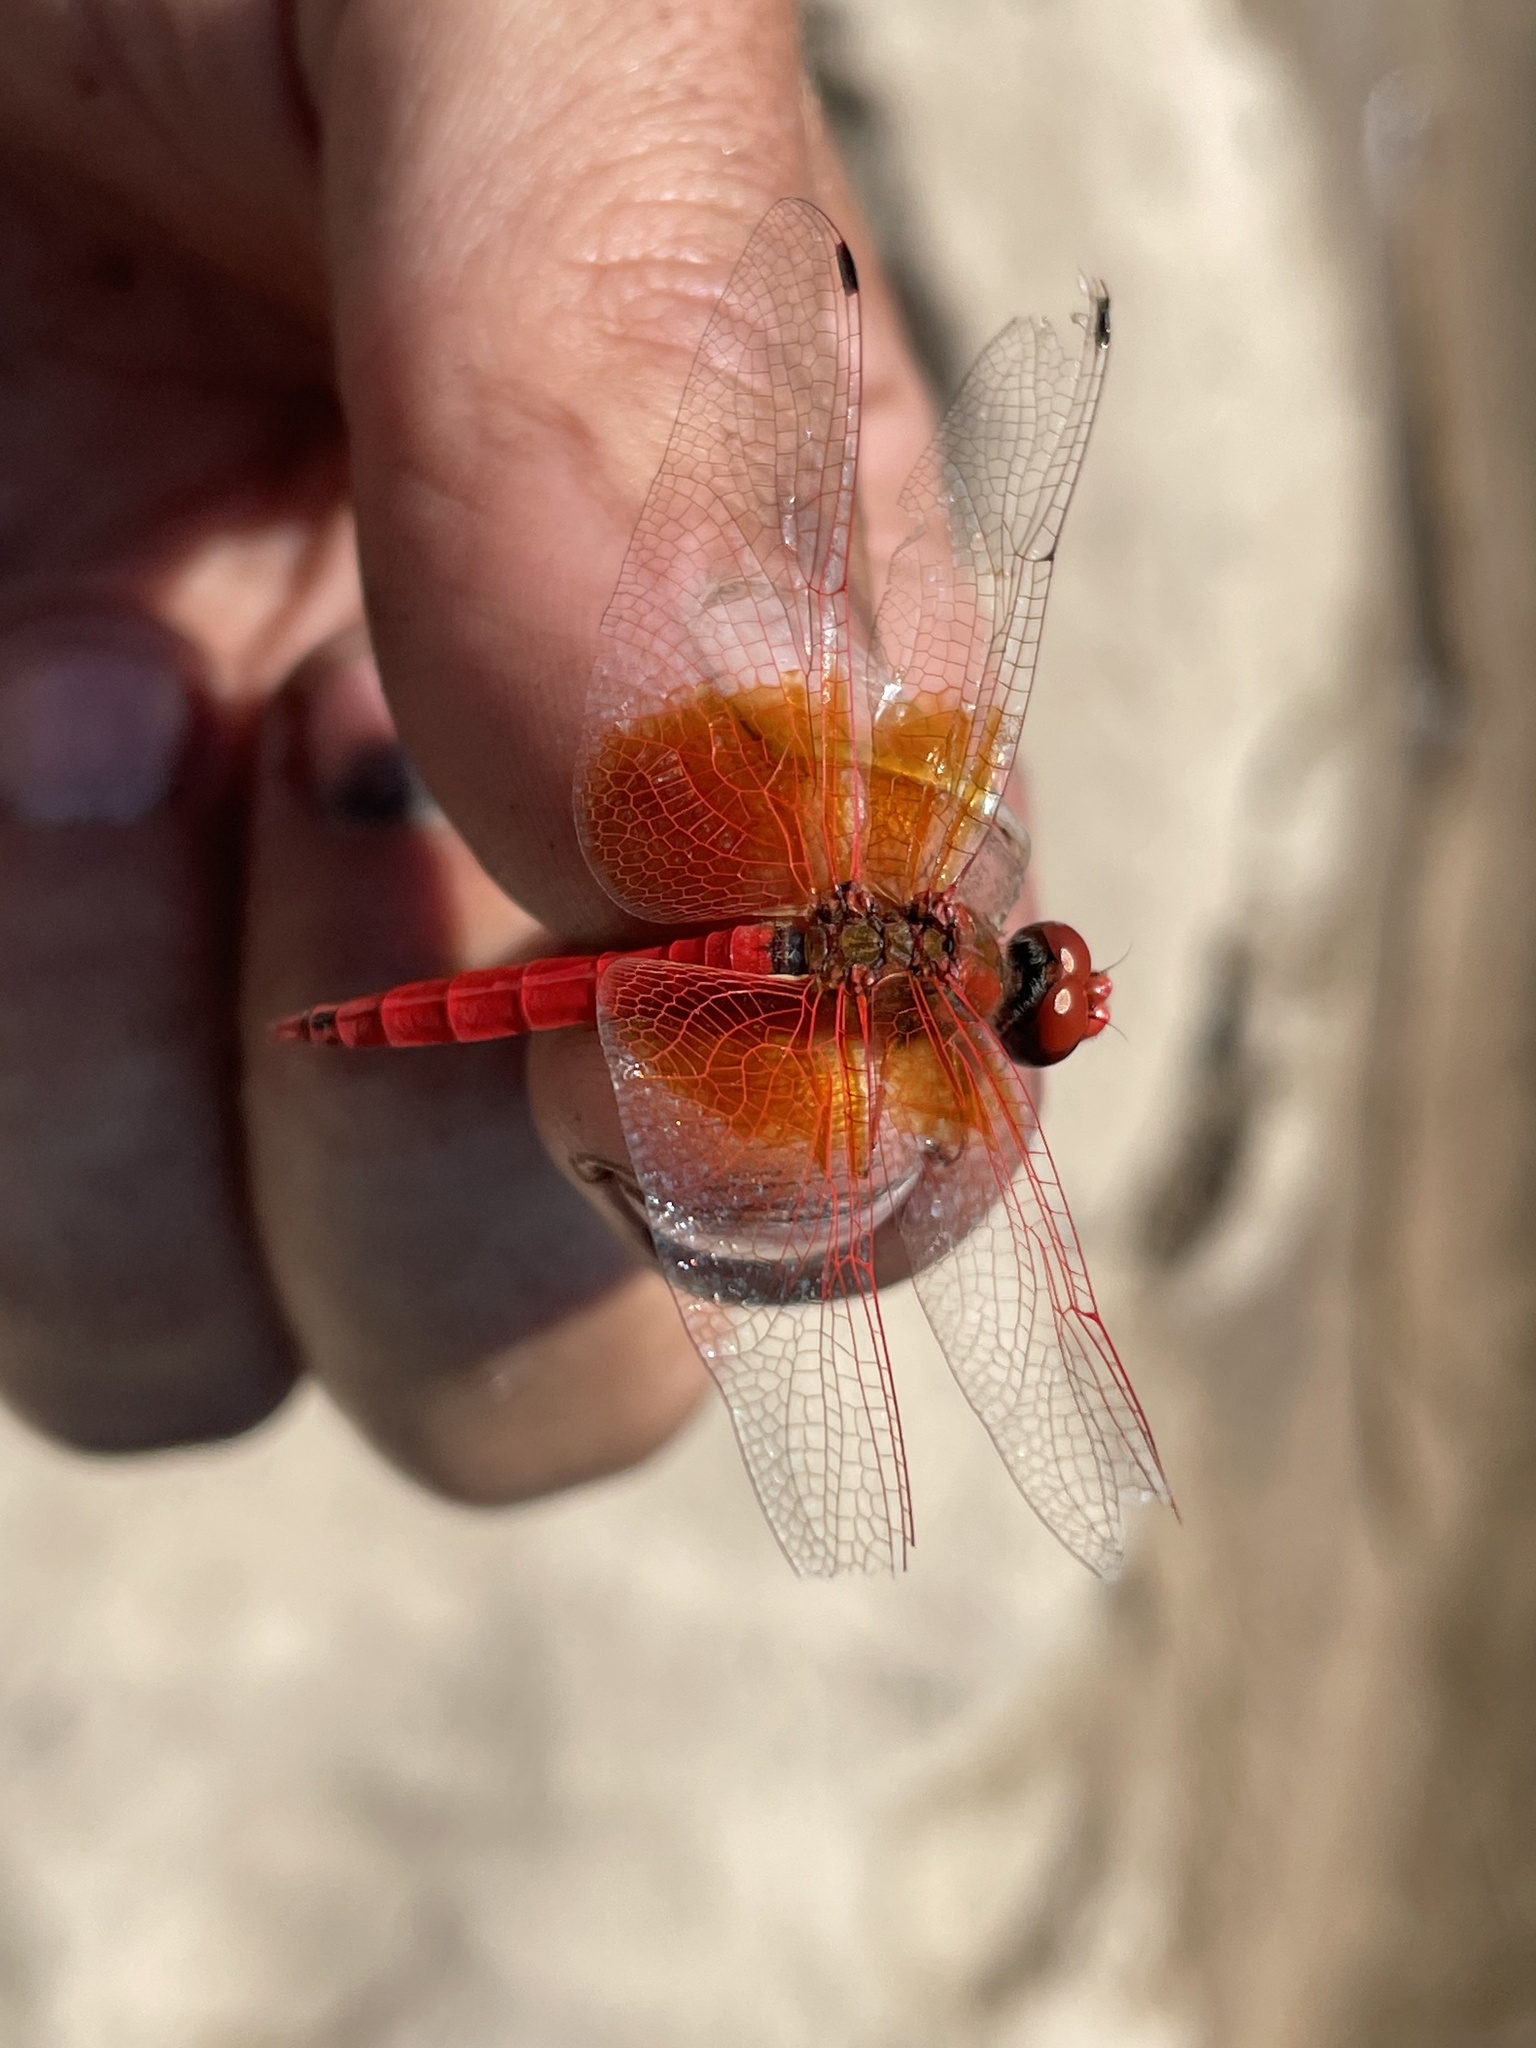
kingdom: Animalia
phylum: Arthropoda
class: Insecta
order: Odonata
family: Libellulidae
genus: Trithemis
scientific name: Trithemis kirbyi
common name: Kirby's dropwing
